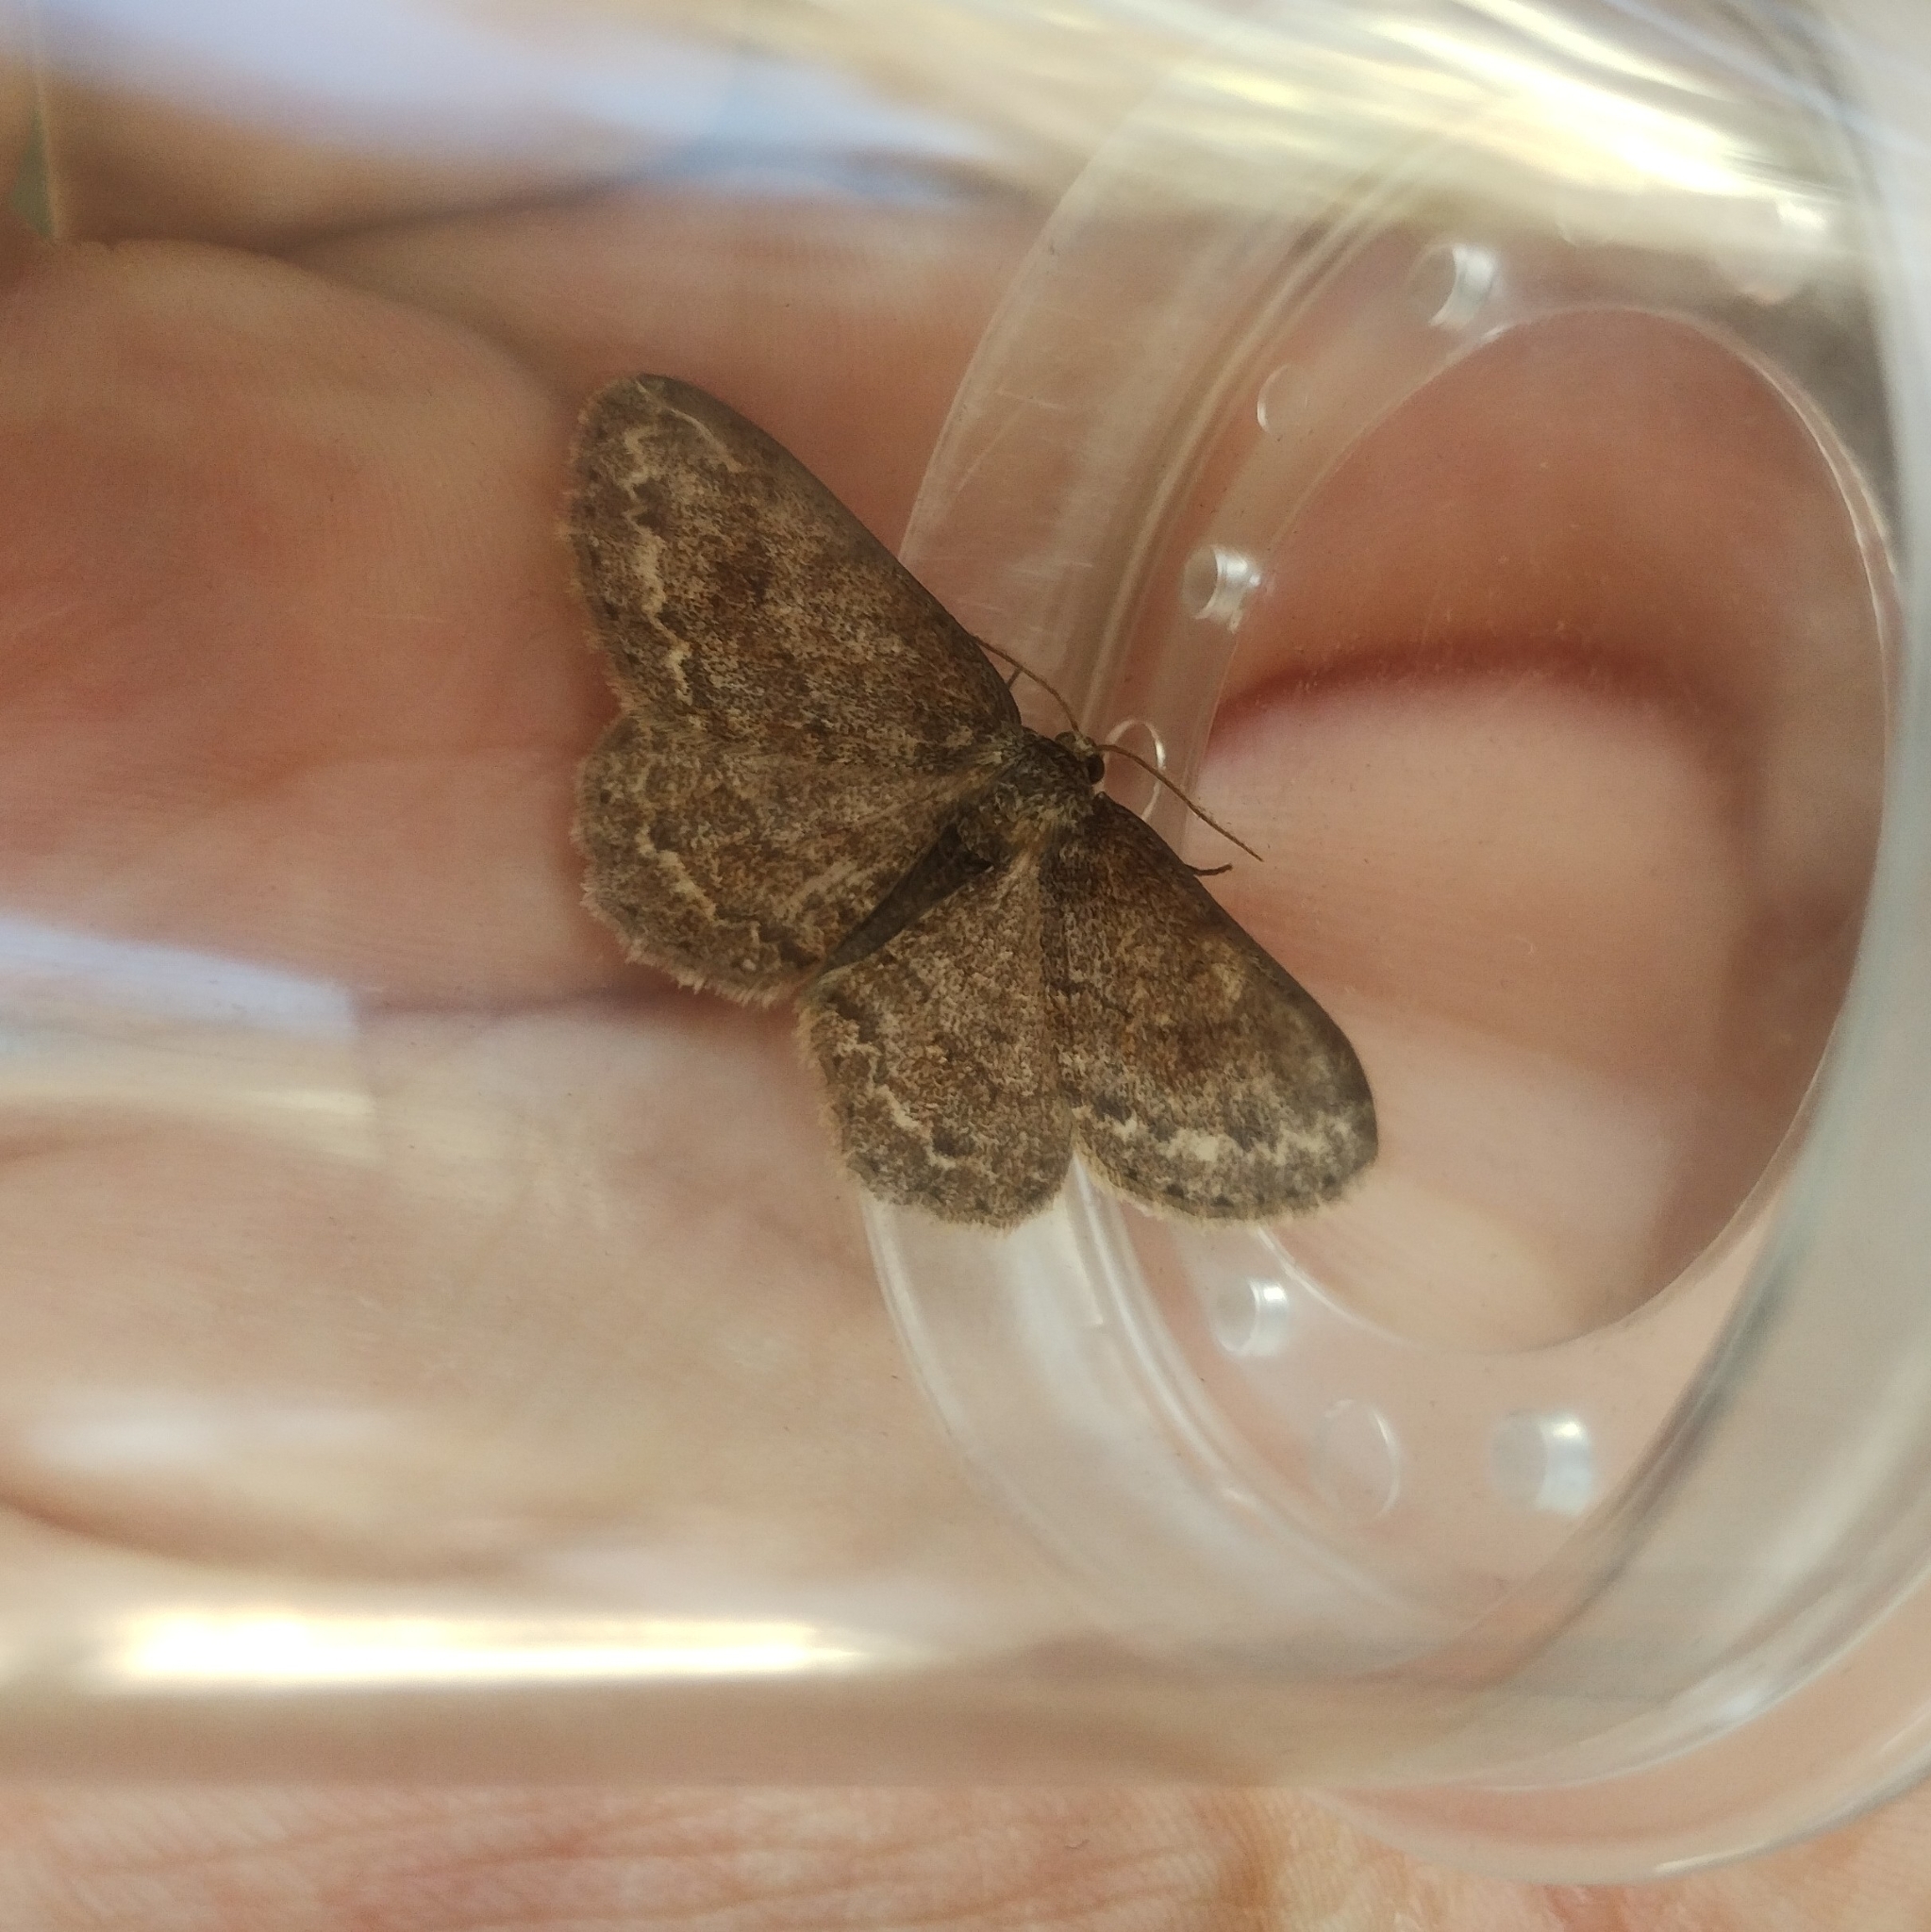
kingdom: Animalia
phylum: Arthropoda
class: Insecta
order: Lepidoptera
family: Geometridae
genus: Ectropis
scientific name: Ectropis crepuscularia
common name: Engrailed
